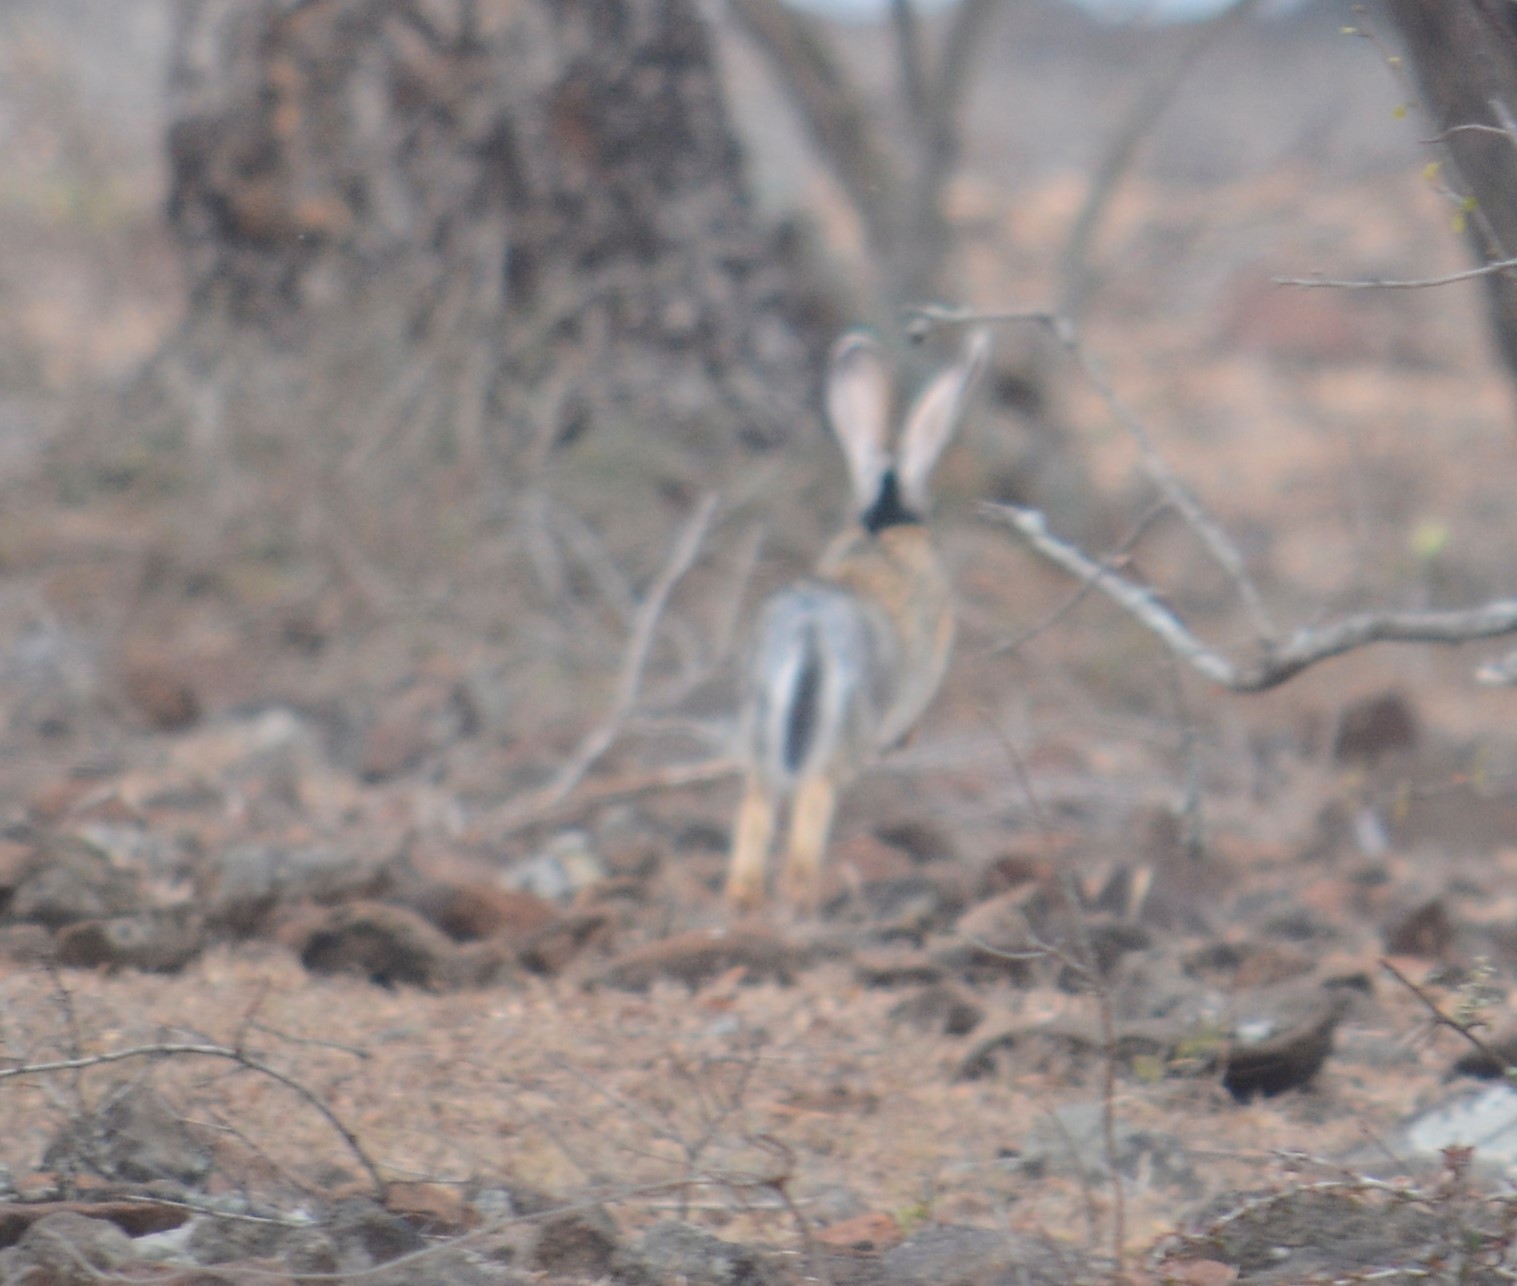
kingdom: Animalia
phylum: Chordata
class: Mammalia
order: Lagomorpha
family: Leporidae
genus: Lepus
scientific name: Lepus nigricollis
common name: Indian hare
